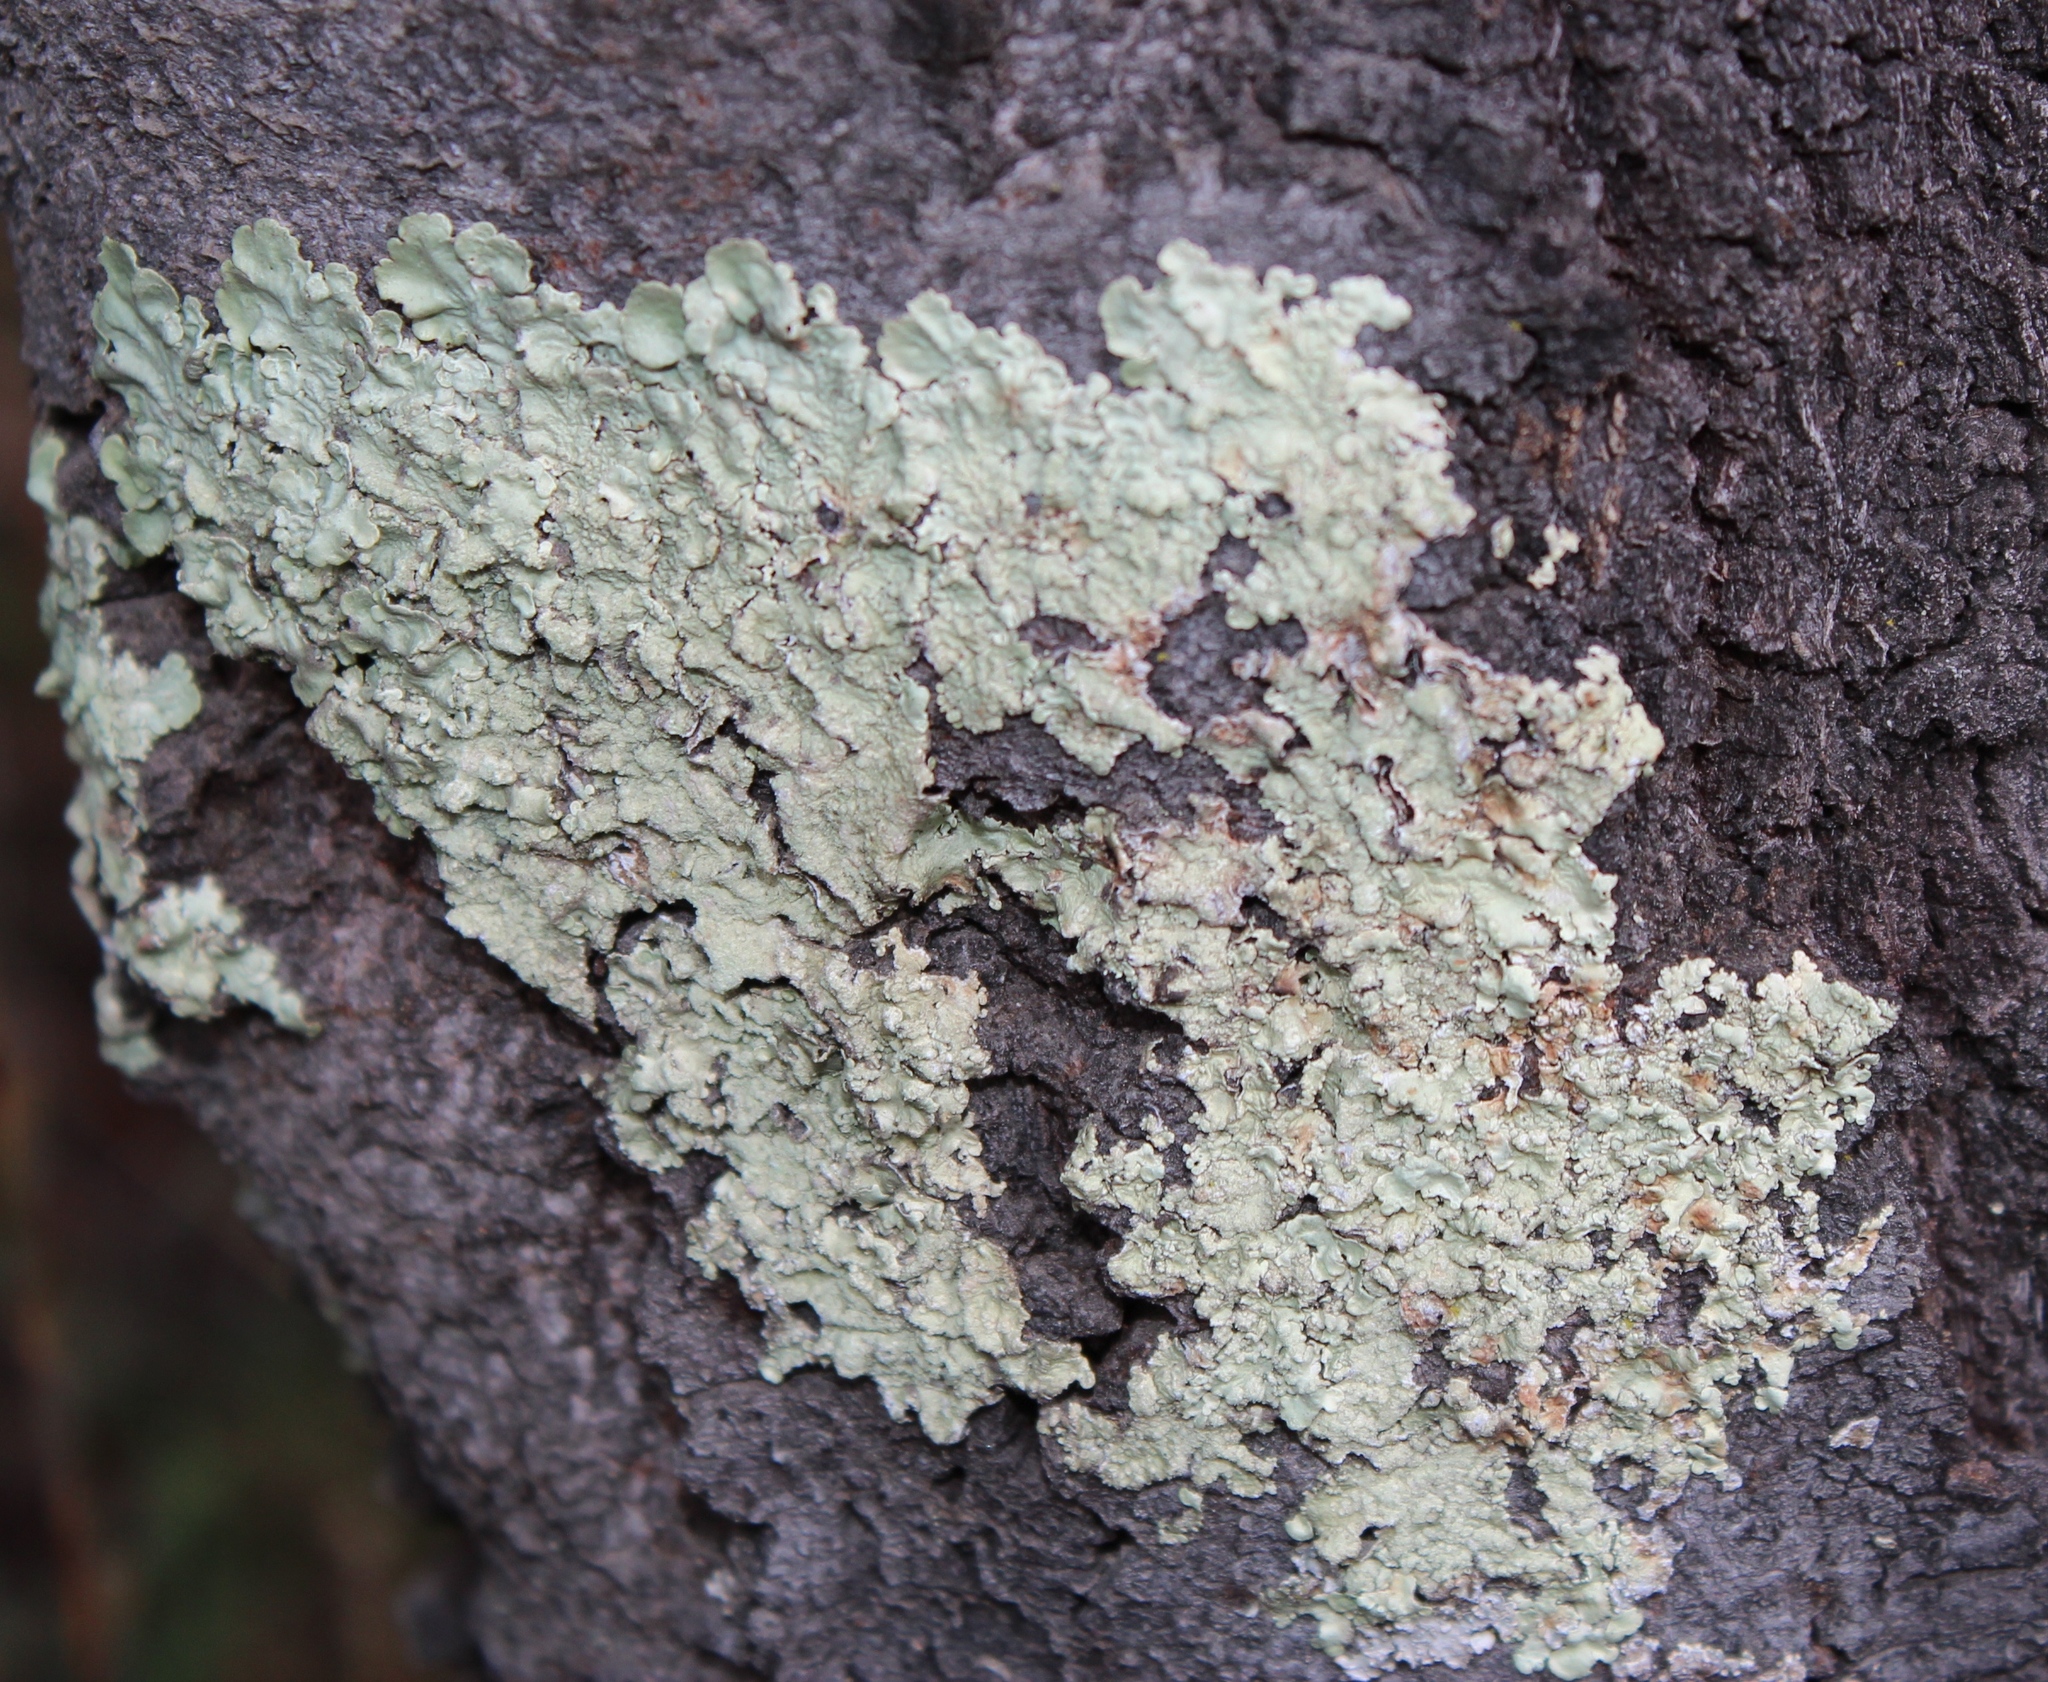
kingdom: Fungi
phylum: Ascomycota
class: Lecanoromycetes
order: Lecanorales
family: Parmeliaceae
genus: Flavoparmelia
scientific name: Flavoparmelia caperata
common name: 40-mile per hour lichen
